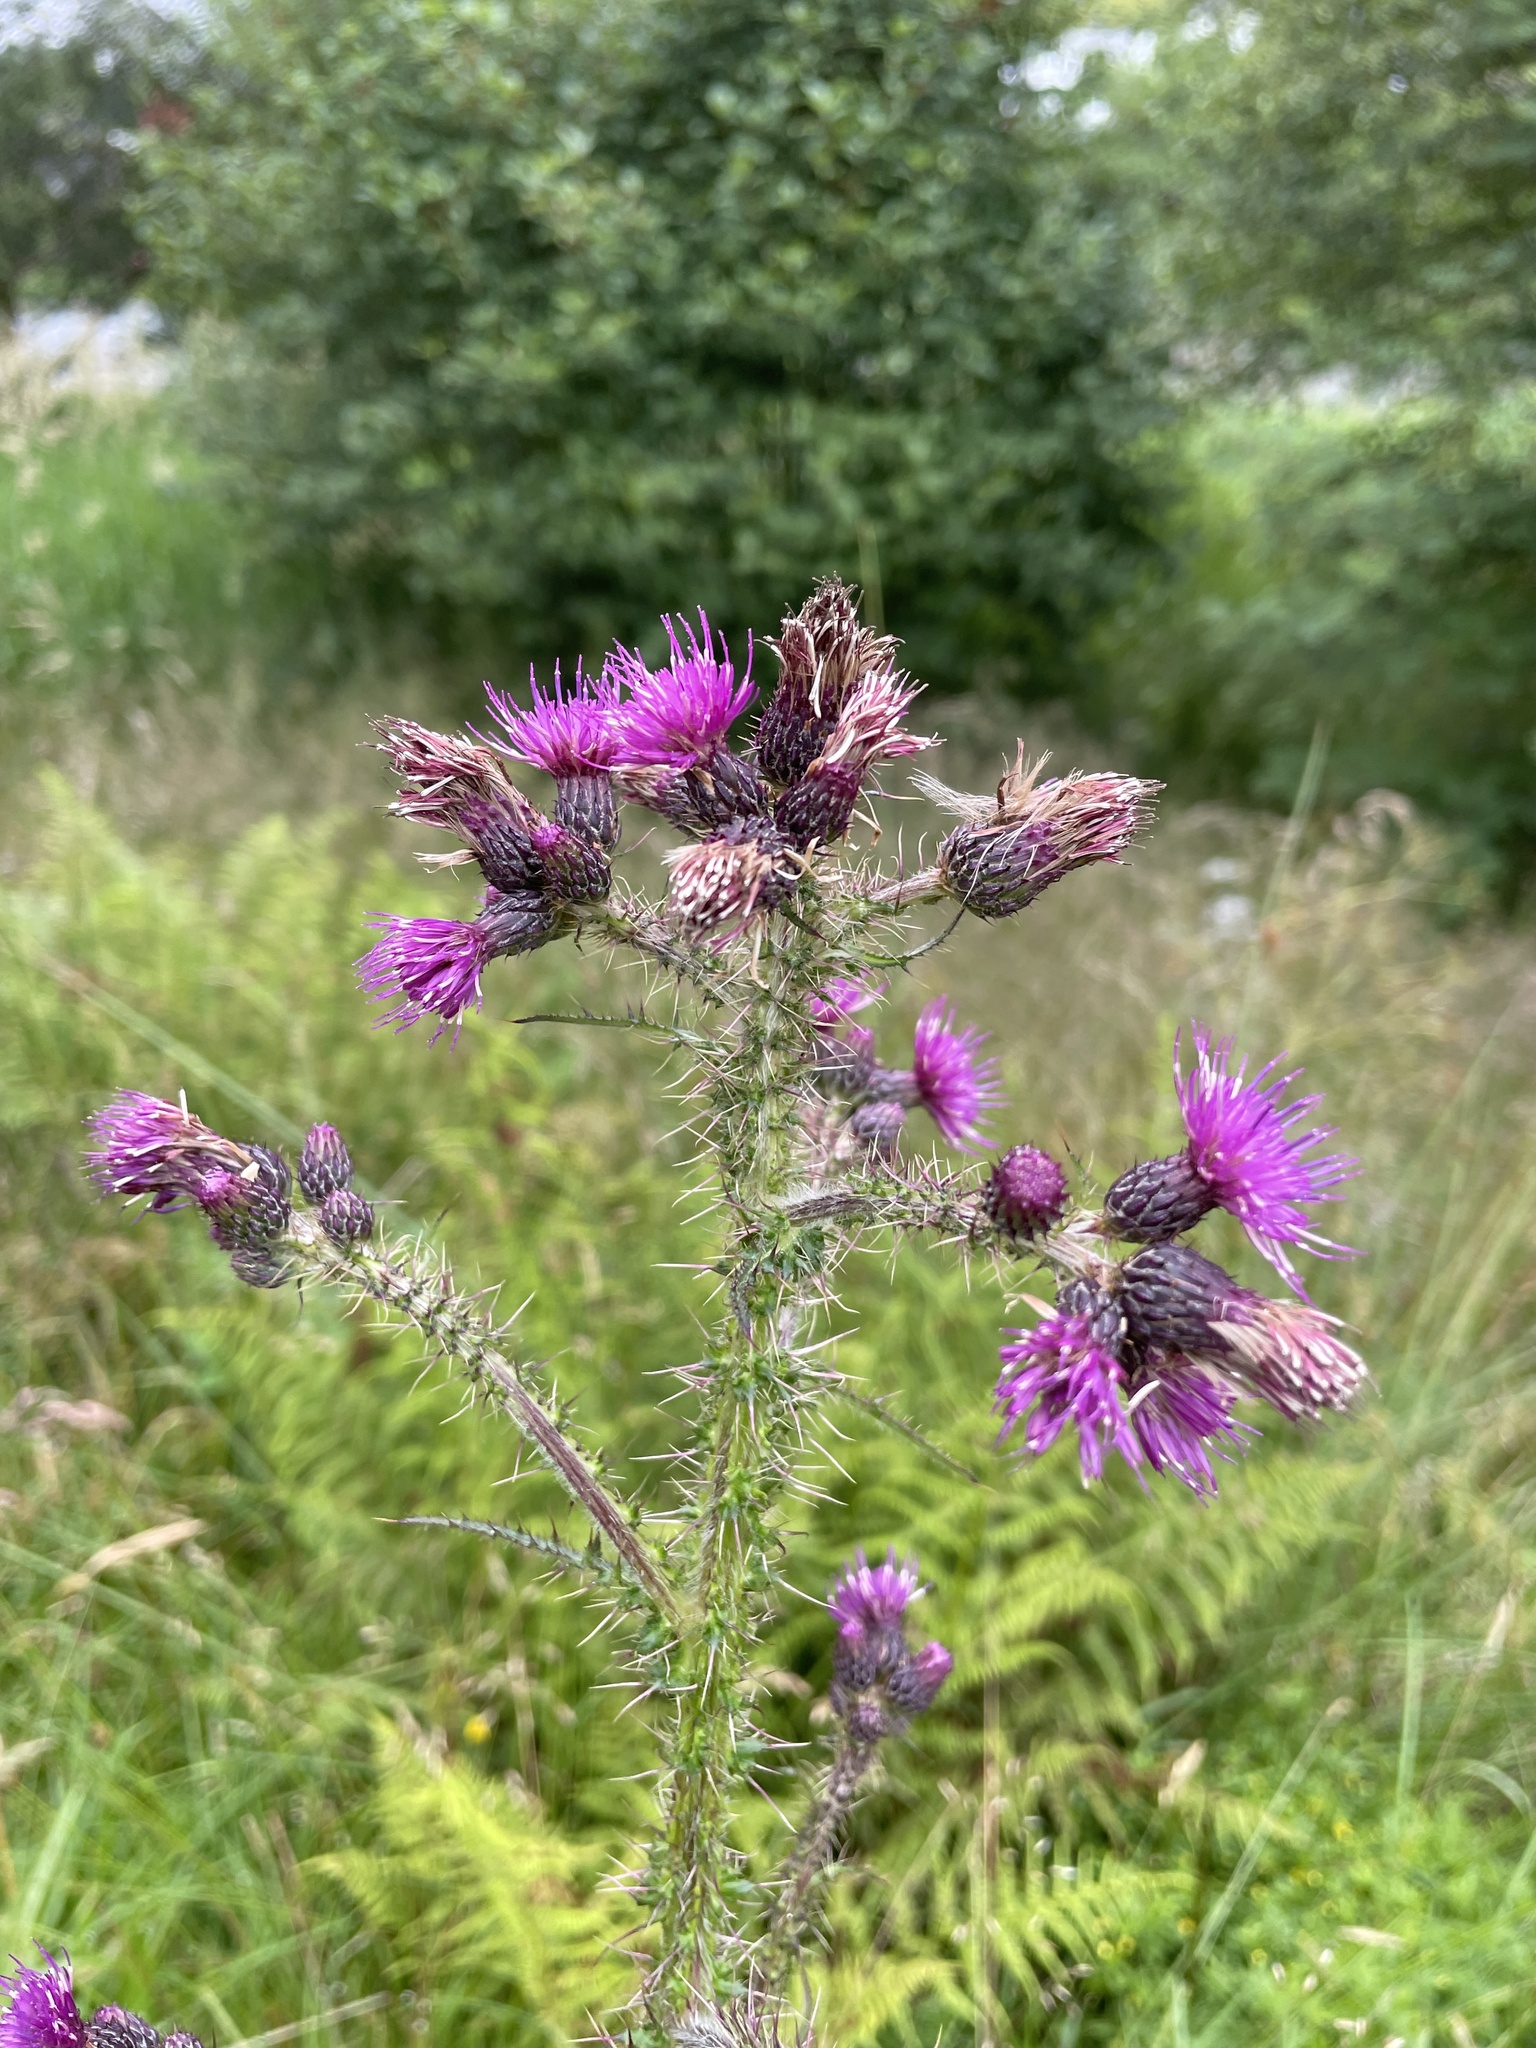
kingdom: Plantae
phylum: Tracheophyta
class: Magnoliopsida
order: Asterales
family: Asteraceae
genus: Cirsium
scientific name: Cirsium palustre
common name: Marsh thistle
